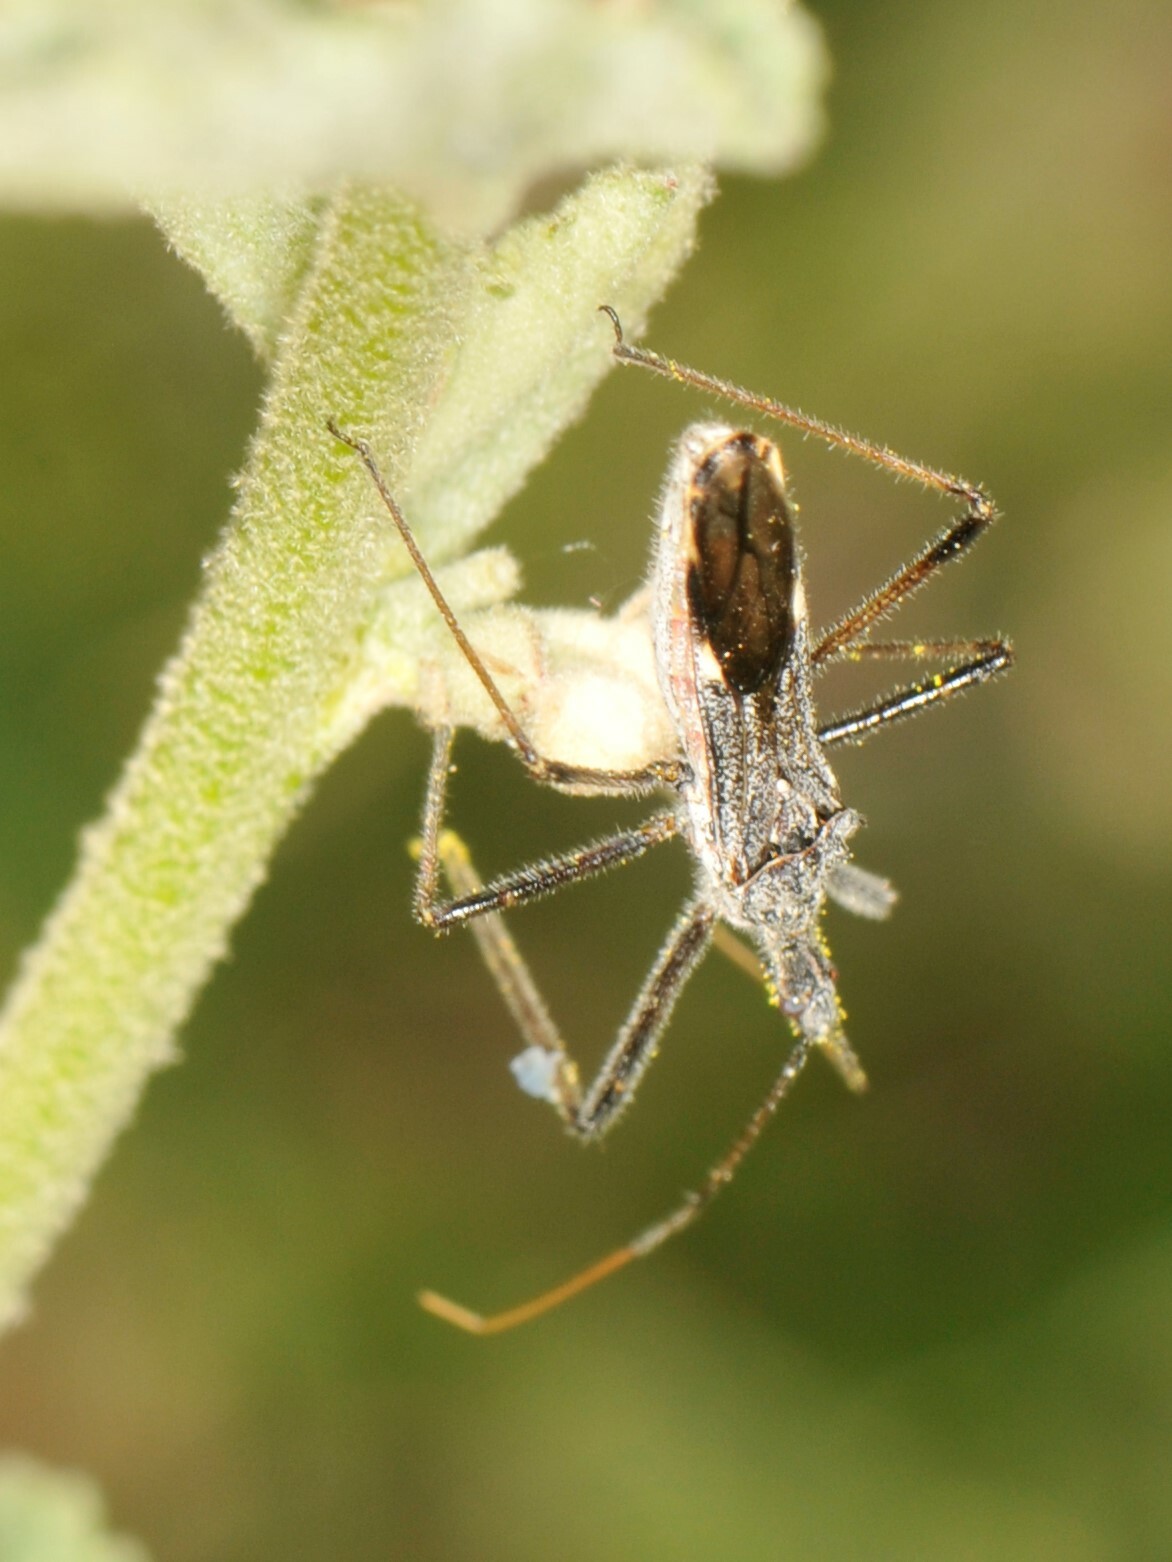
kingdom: Animalia
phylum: Arthropoda
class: Insecta
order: Hemiptera
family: Reduviidae
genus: Zelus
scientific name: Zelus tetracanthus
